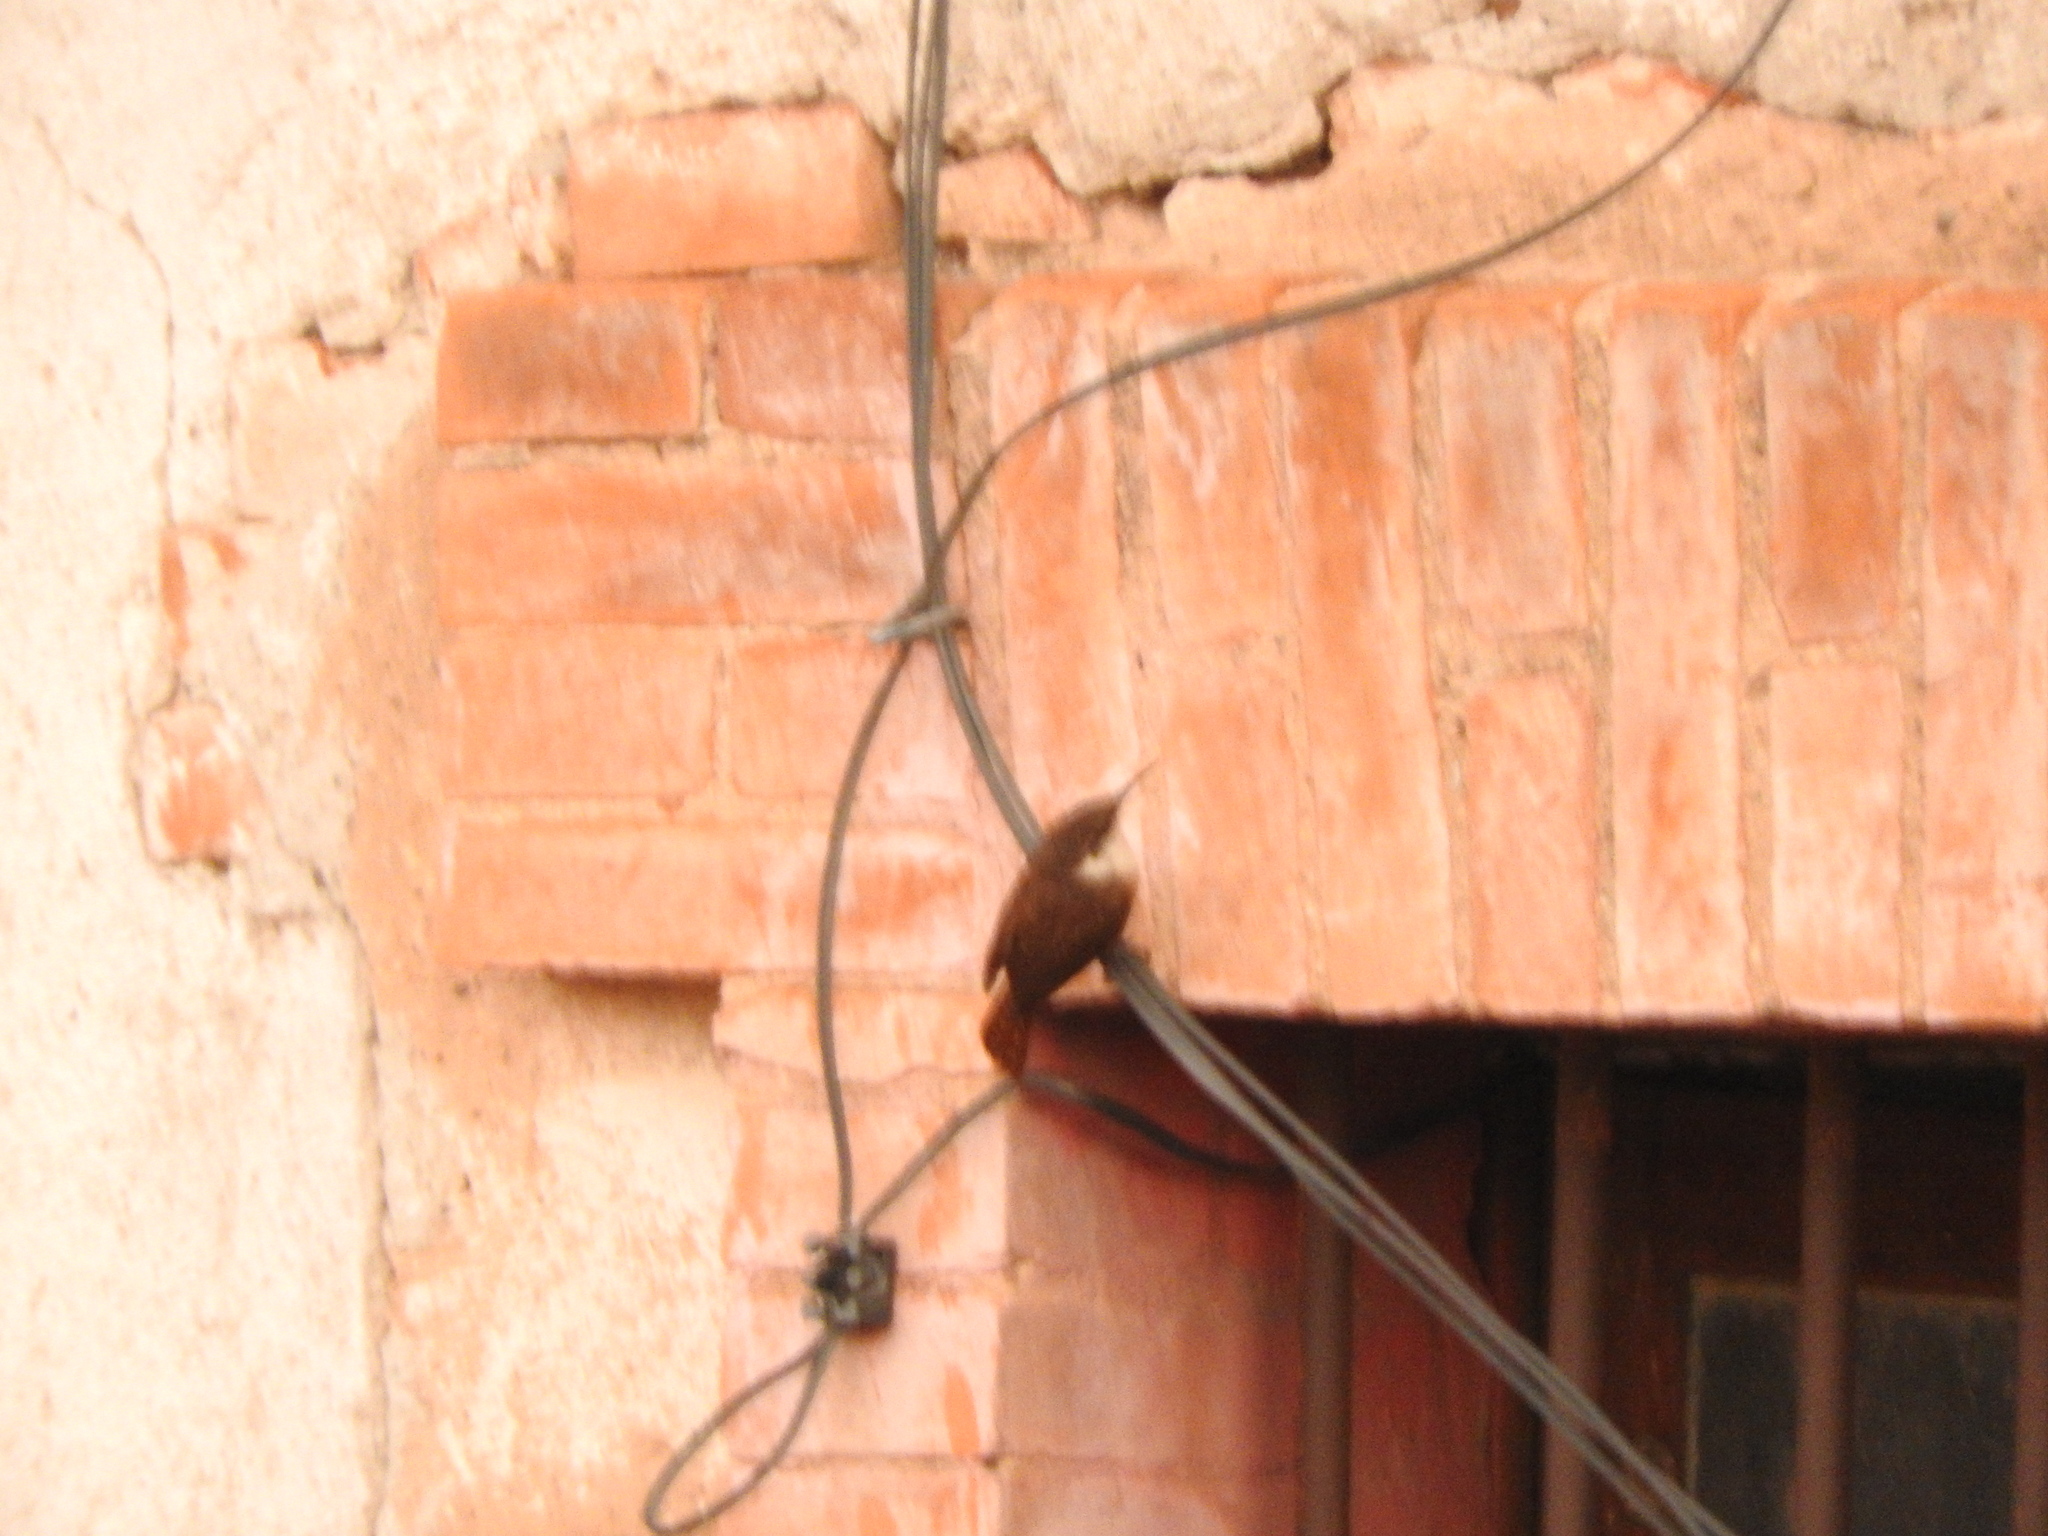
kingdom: Animalia
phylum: Chordata
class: Aves
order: Passeriformes
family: Troglodytidae
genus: Catherpes
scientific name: Catherpes mexicanus
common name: Canyon wren
